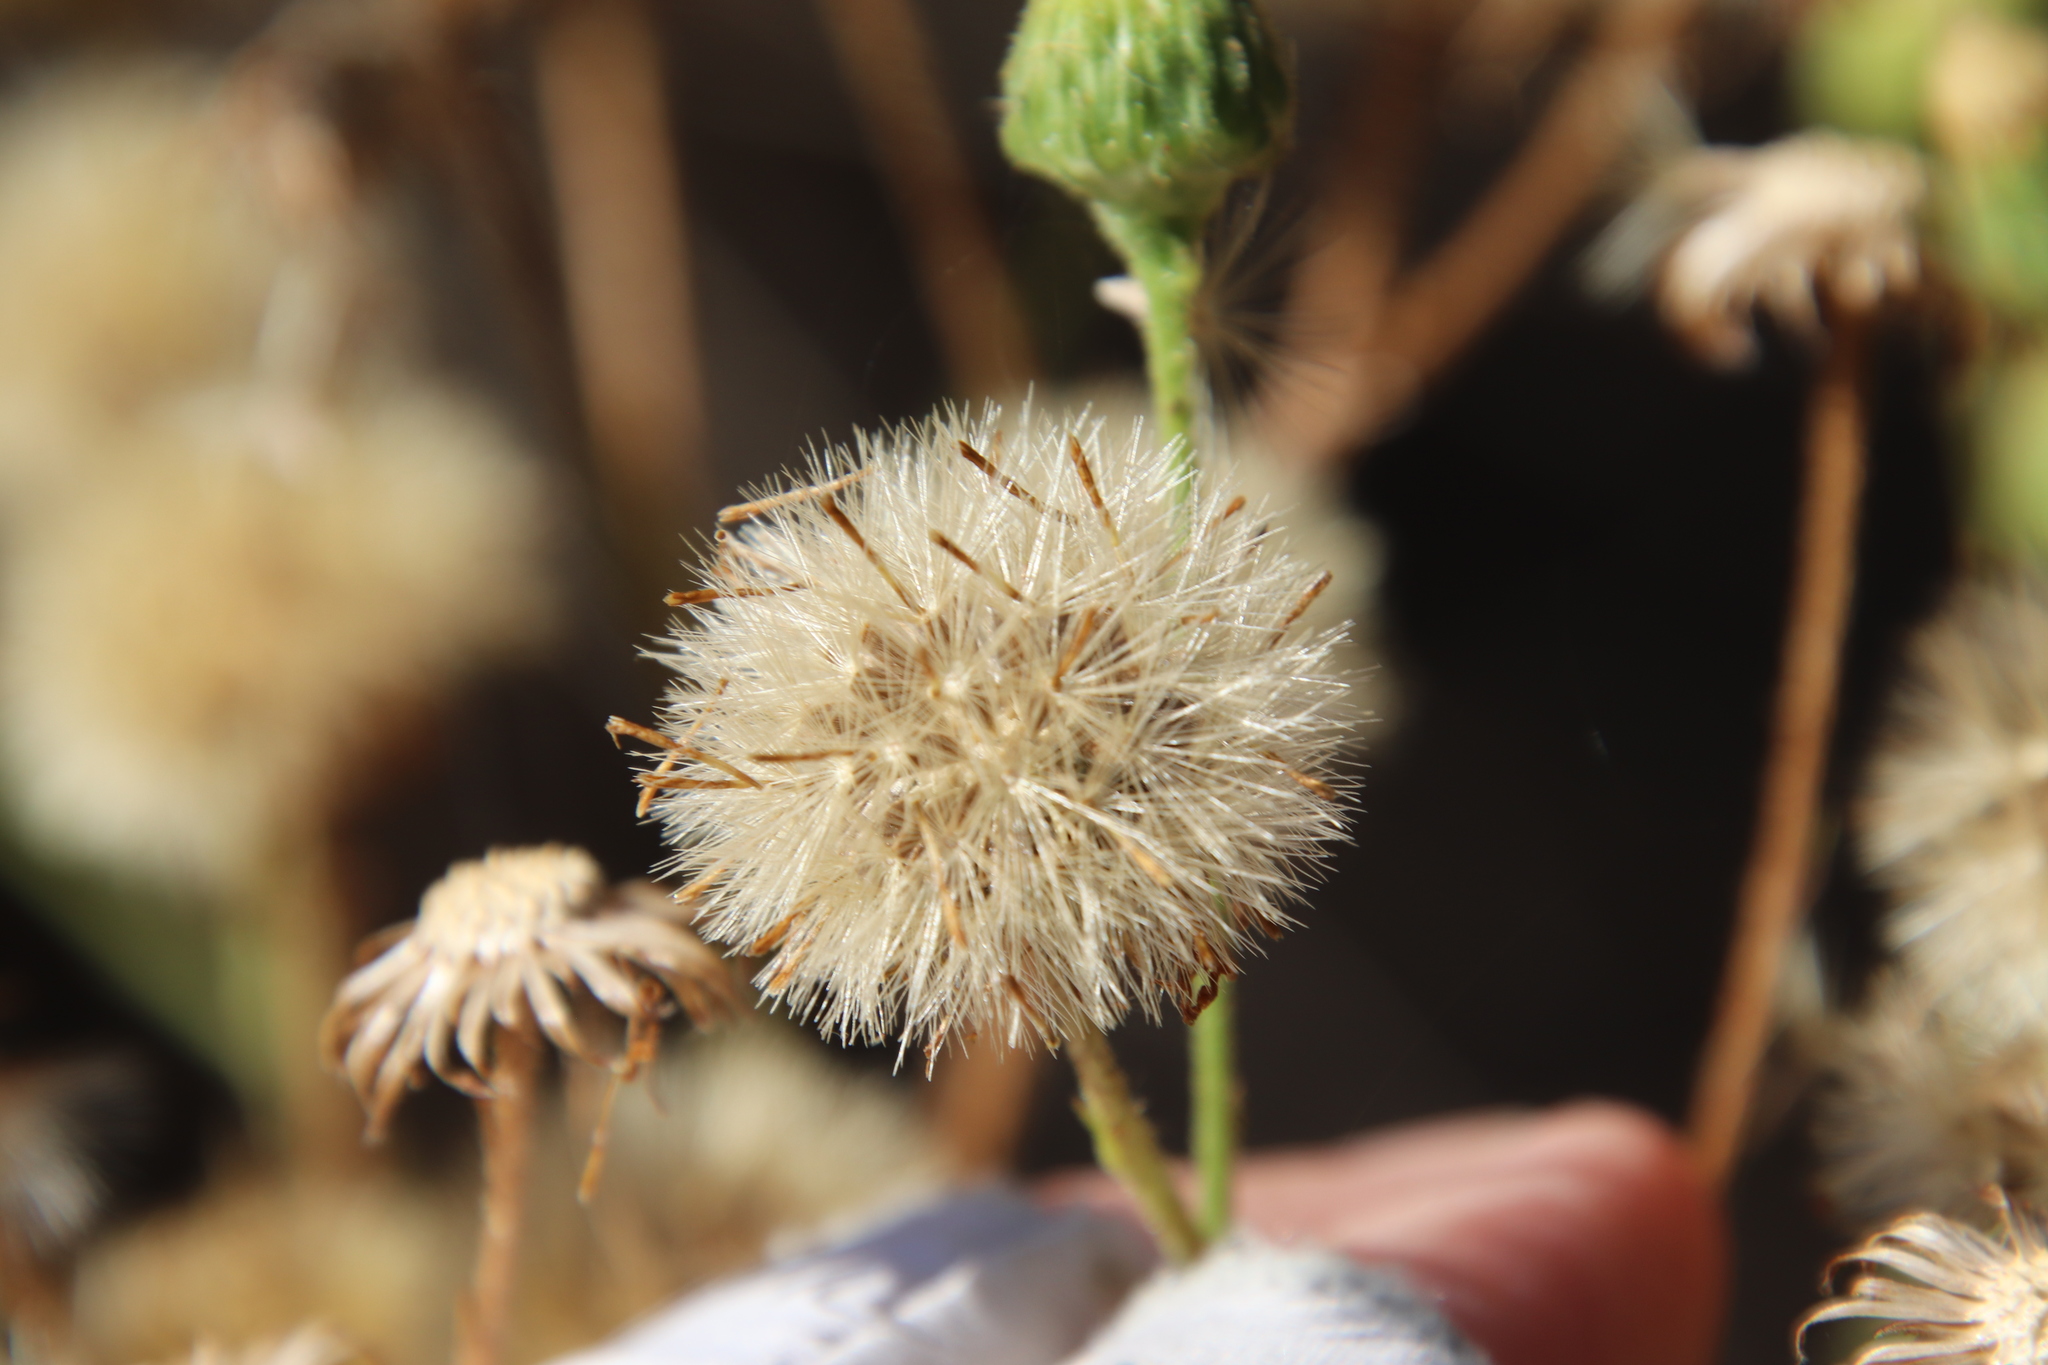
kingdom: Plantae
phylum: Tracheophyta
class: Magnoliopsida
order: Asterales
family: Asteraceae
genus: Heterotheca
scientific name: Heterotheca grandiflora
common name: Telegraphweed
